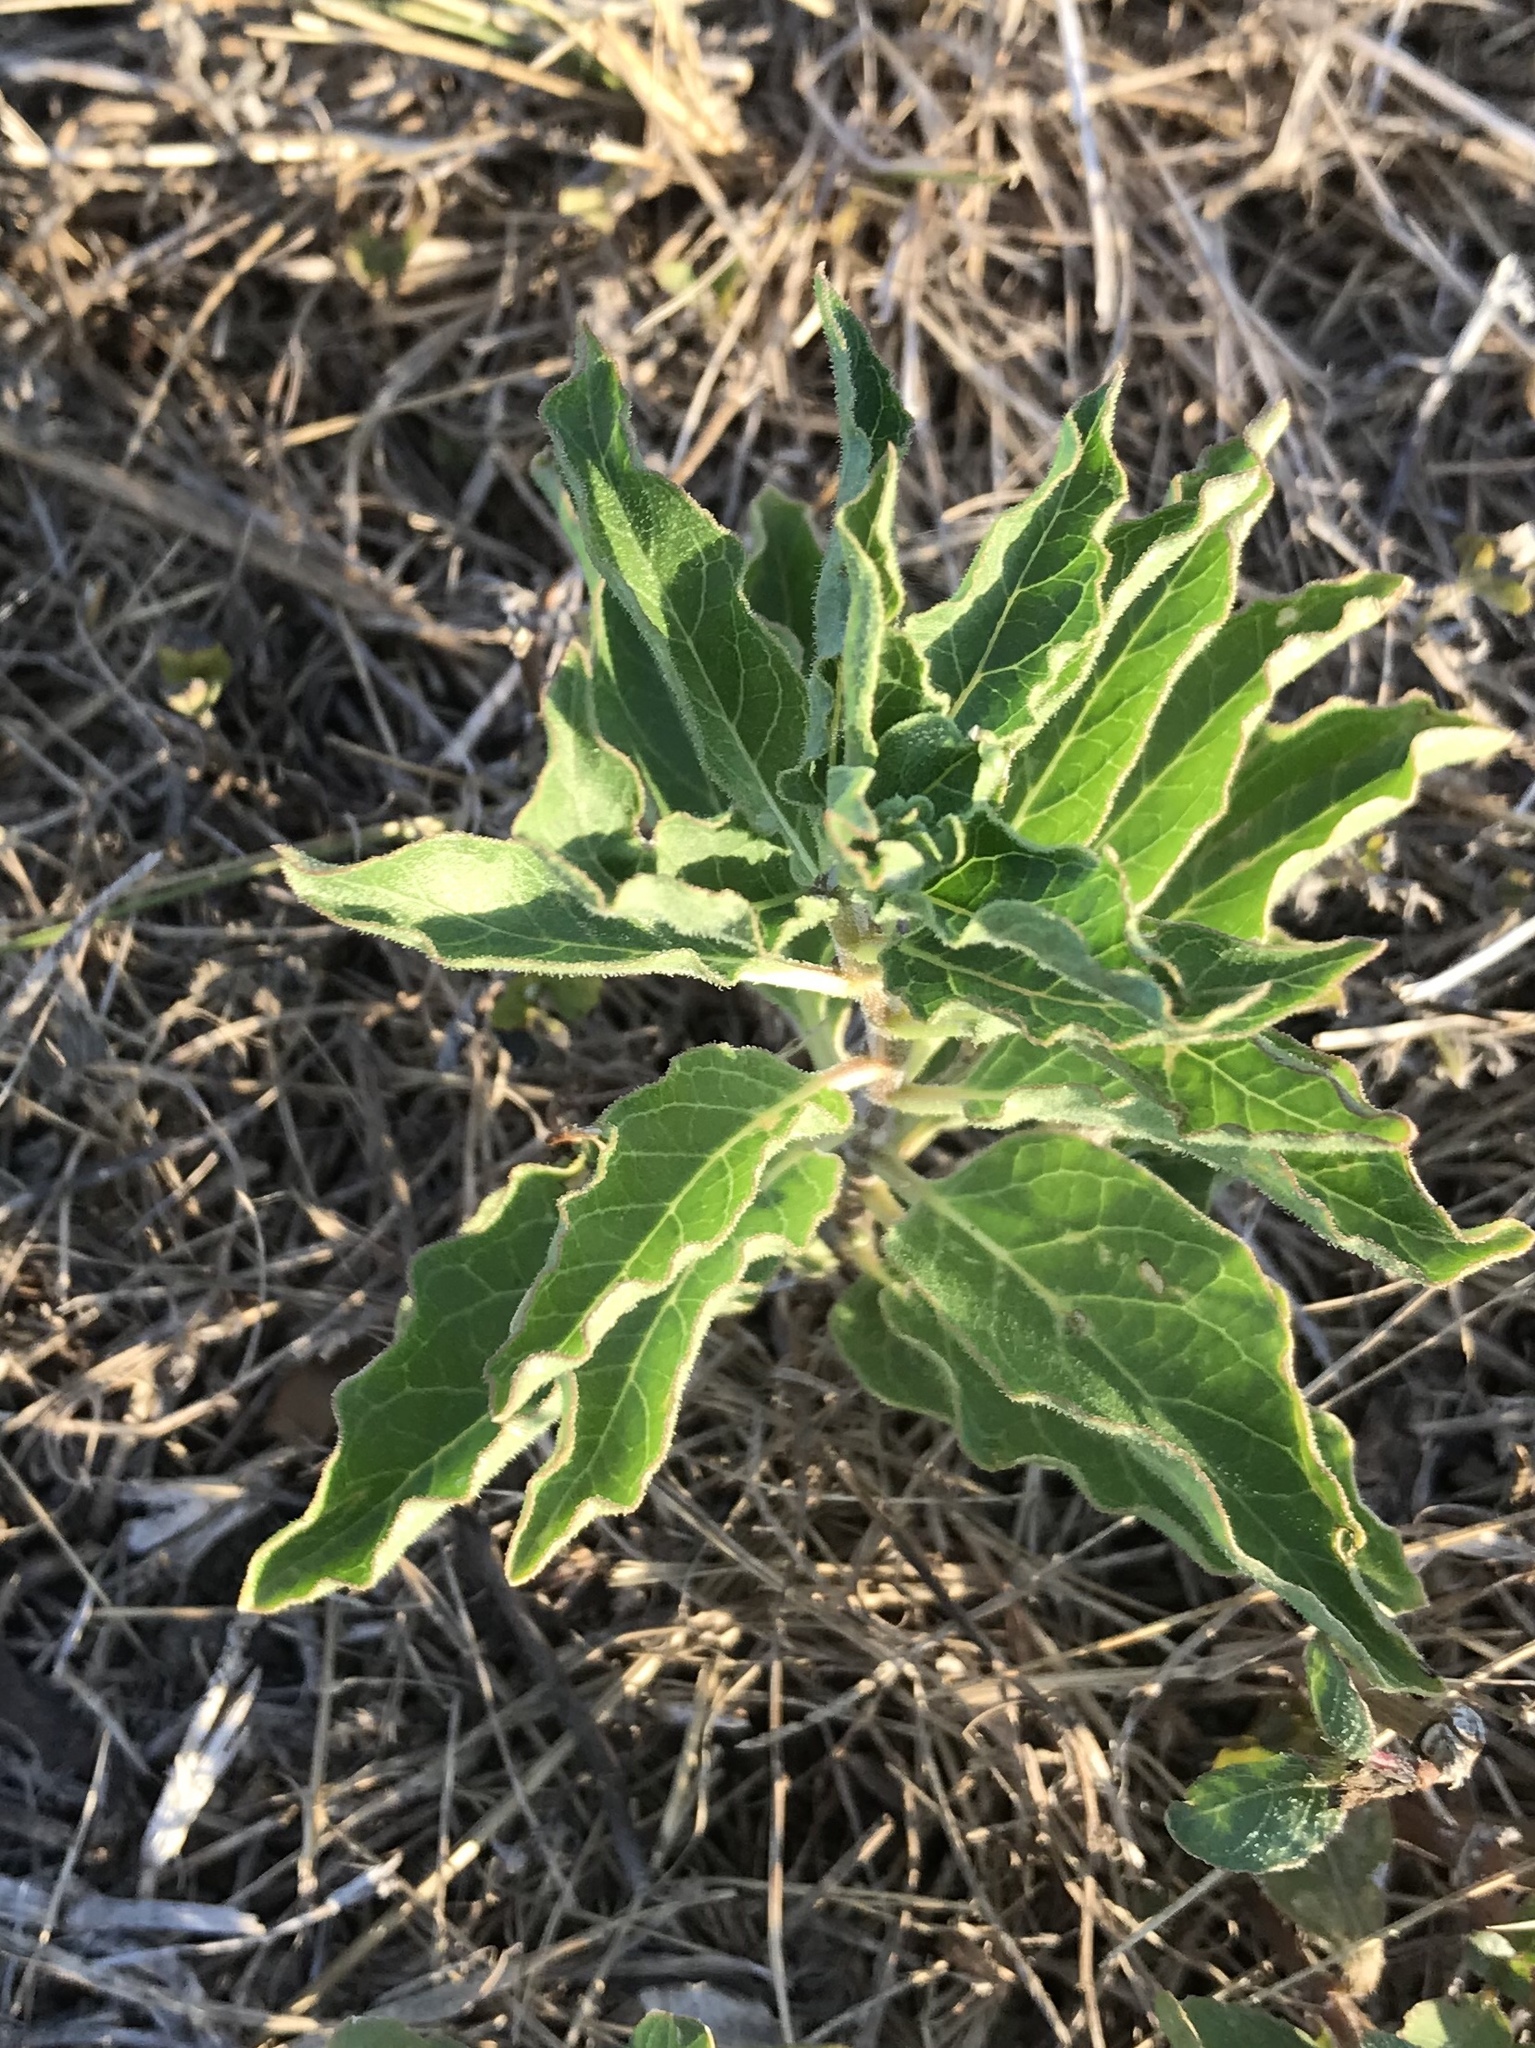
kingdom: Plantae
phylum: Tracheophyta
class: Magnoliopsida
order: Gentianales
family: Apocynaceae
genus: Asclepias
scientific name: Asclepias oenotheroides
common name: Zizotes milkweed
